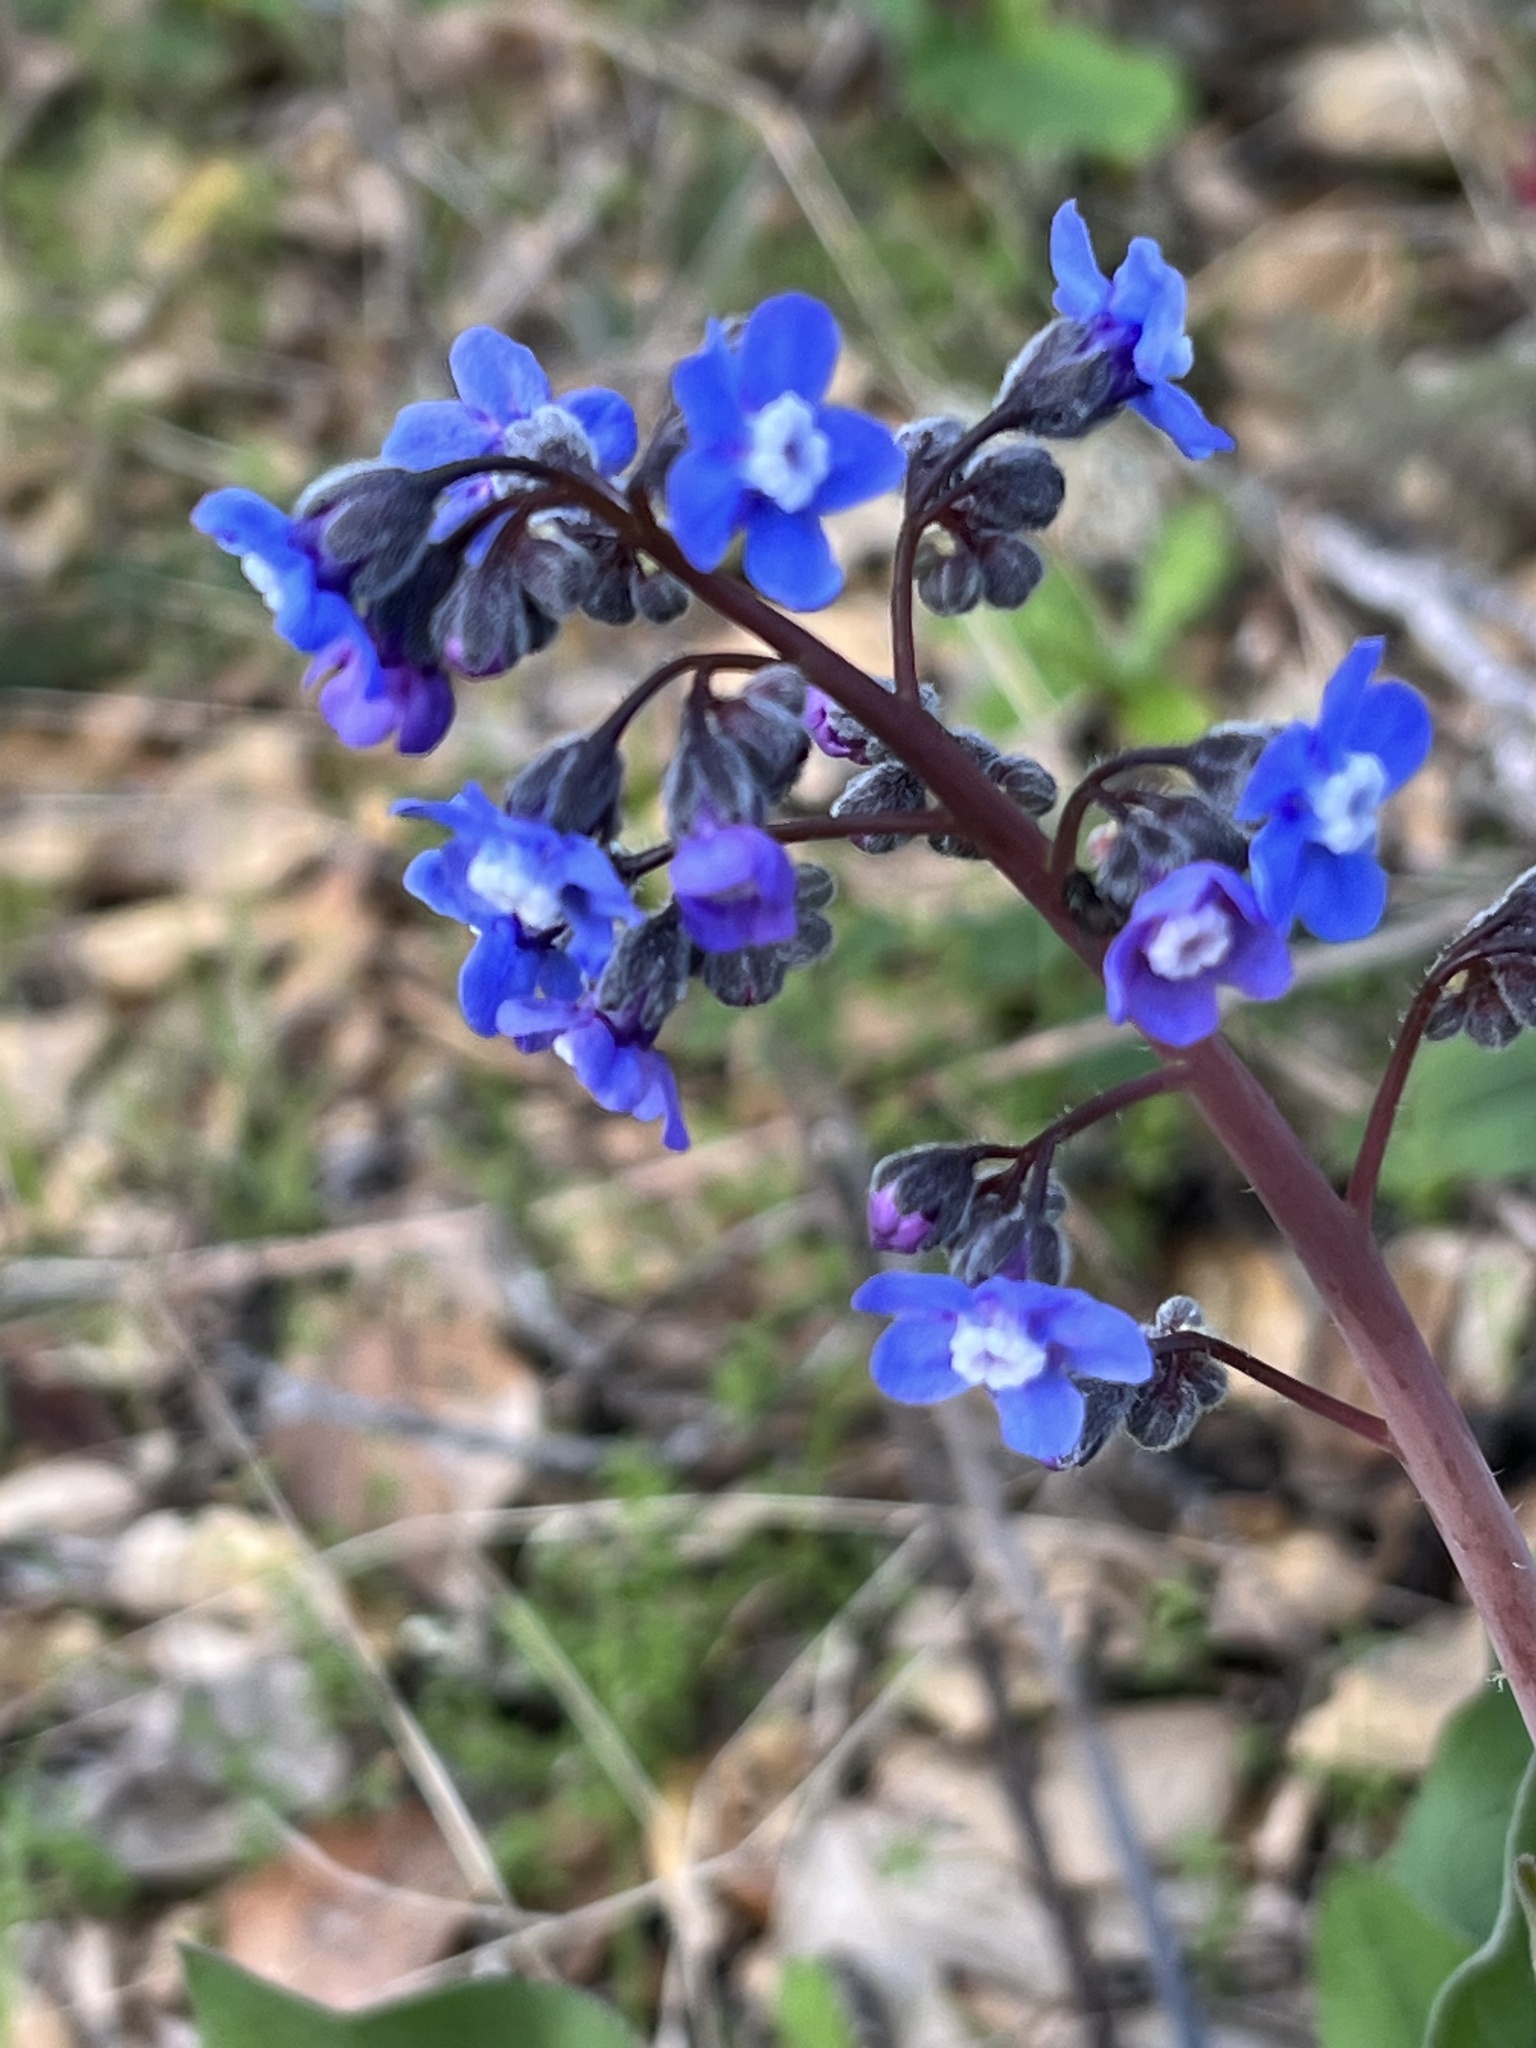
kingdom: Plantae
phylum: Tracheophyta
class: Magnoliopsida
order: Boraginales
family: Boraginaceae
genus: Adelinia
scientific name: Adelinia grande
